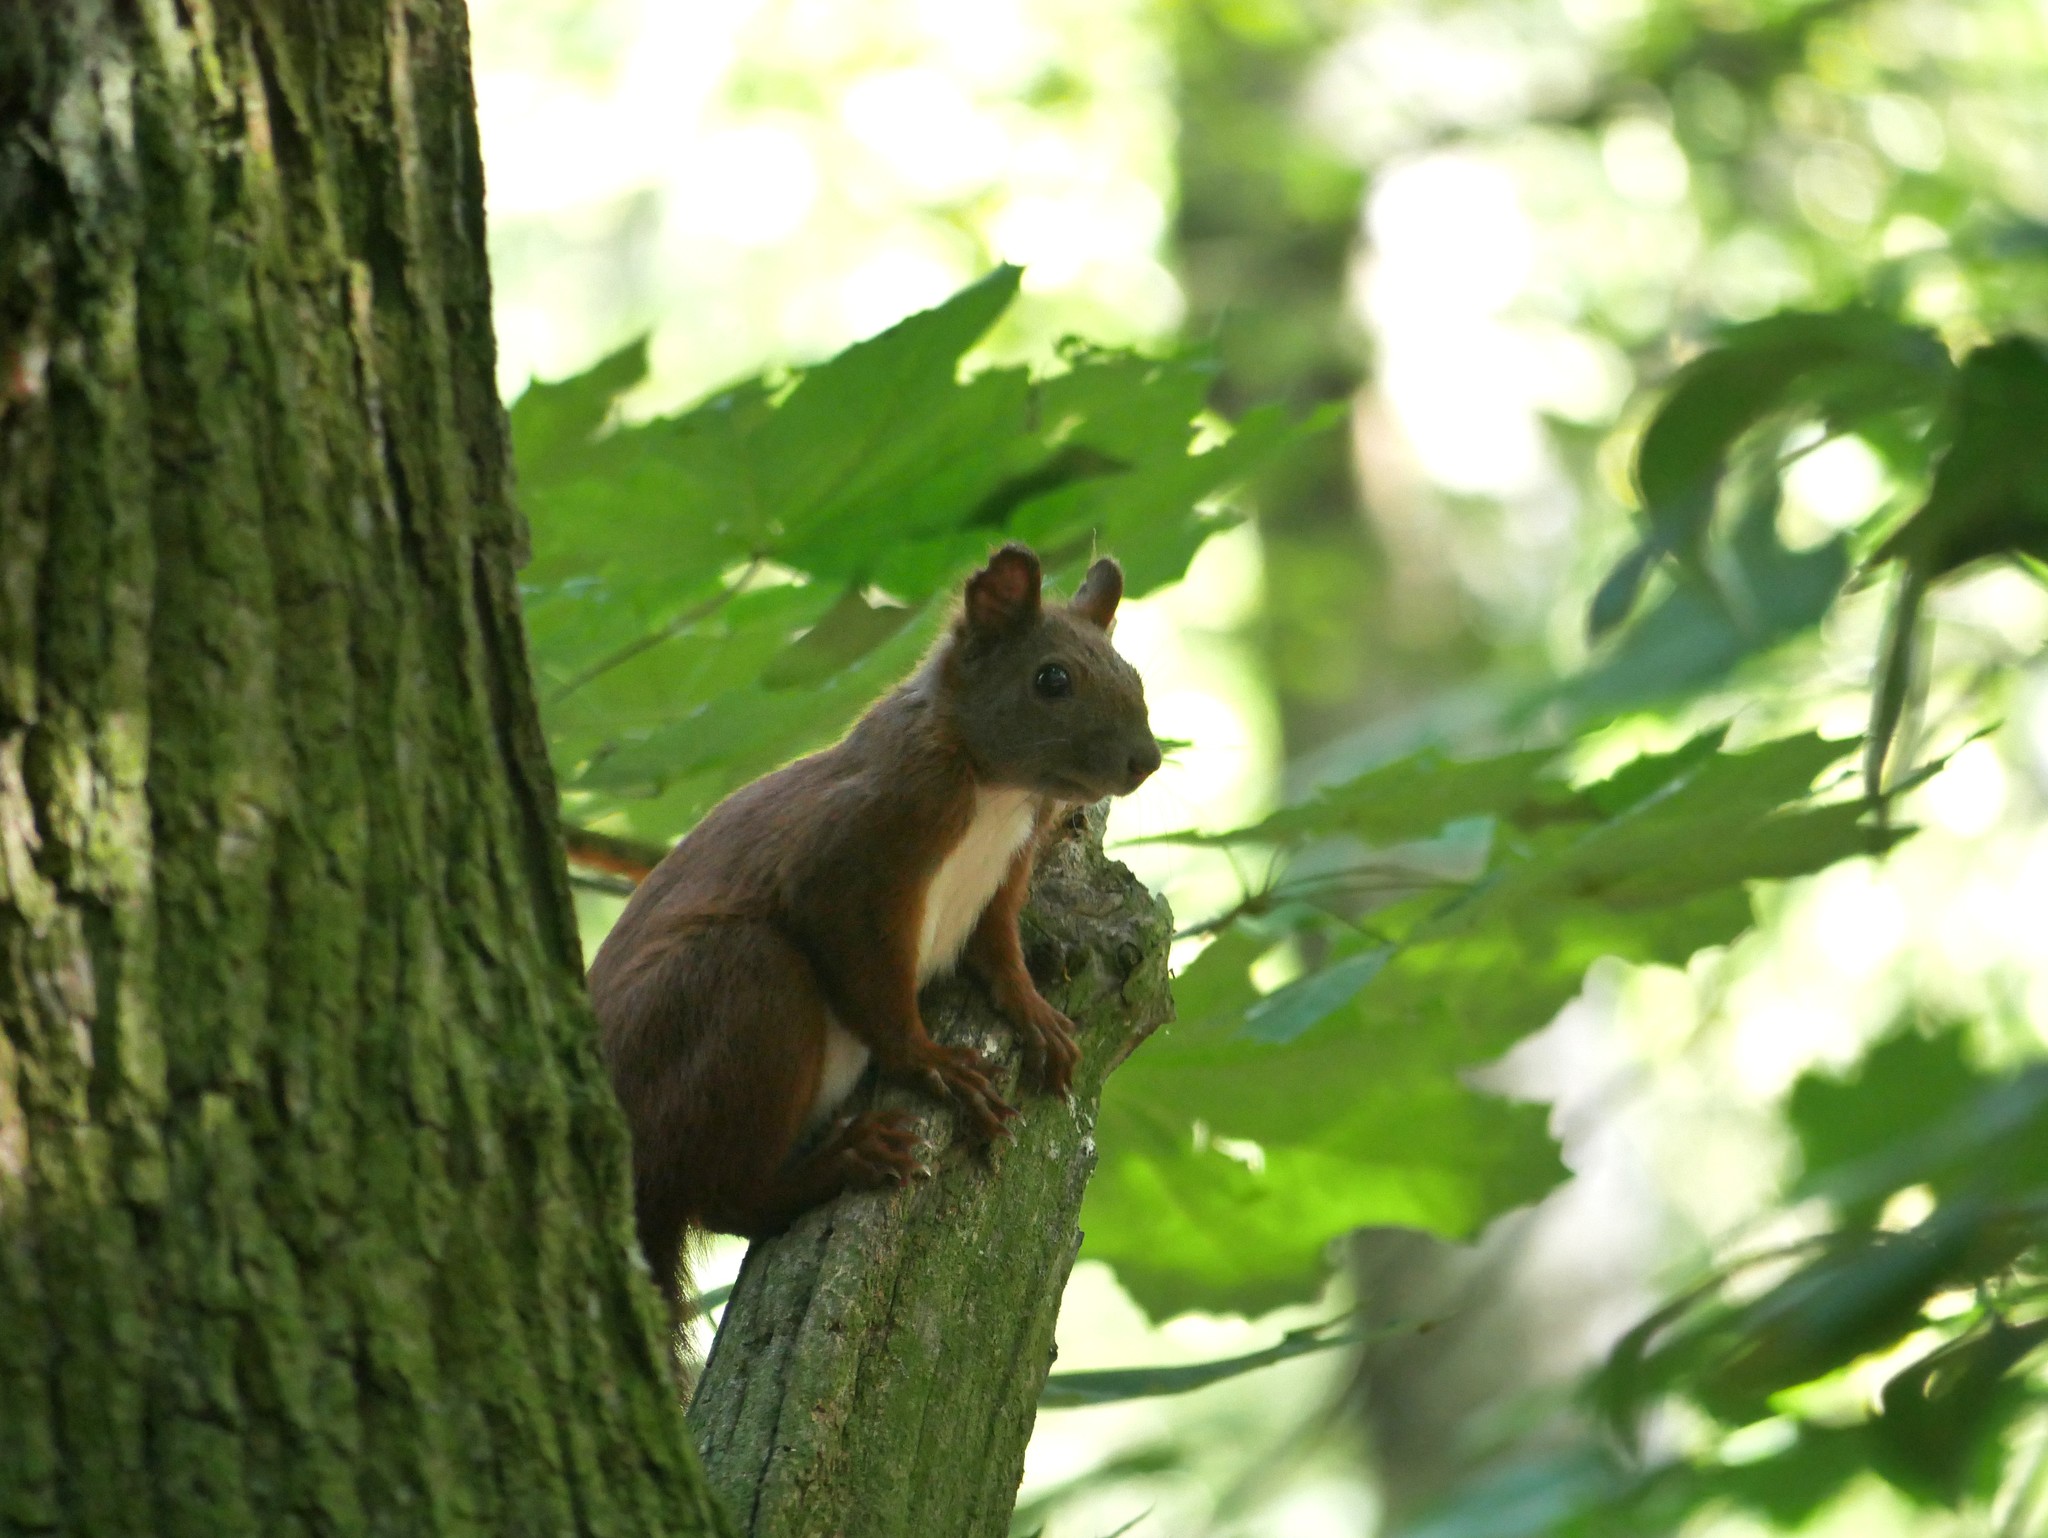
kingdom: Animalia
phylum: Chordata
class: Mammalia
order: Rodentia
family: Sciuridae
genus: Sciurus
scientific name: Sciurus vulgaris
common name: Eurasian red squirrel
